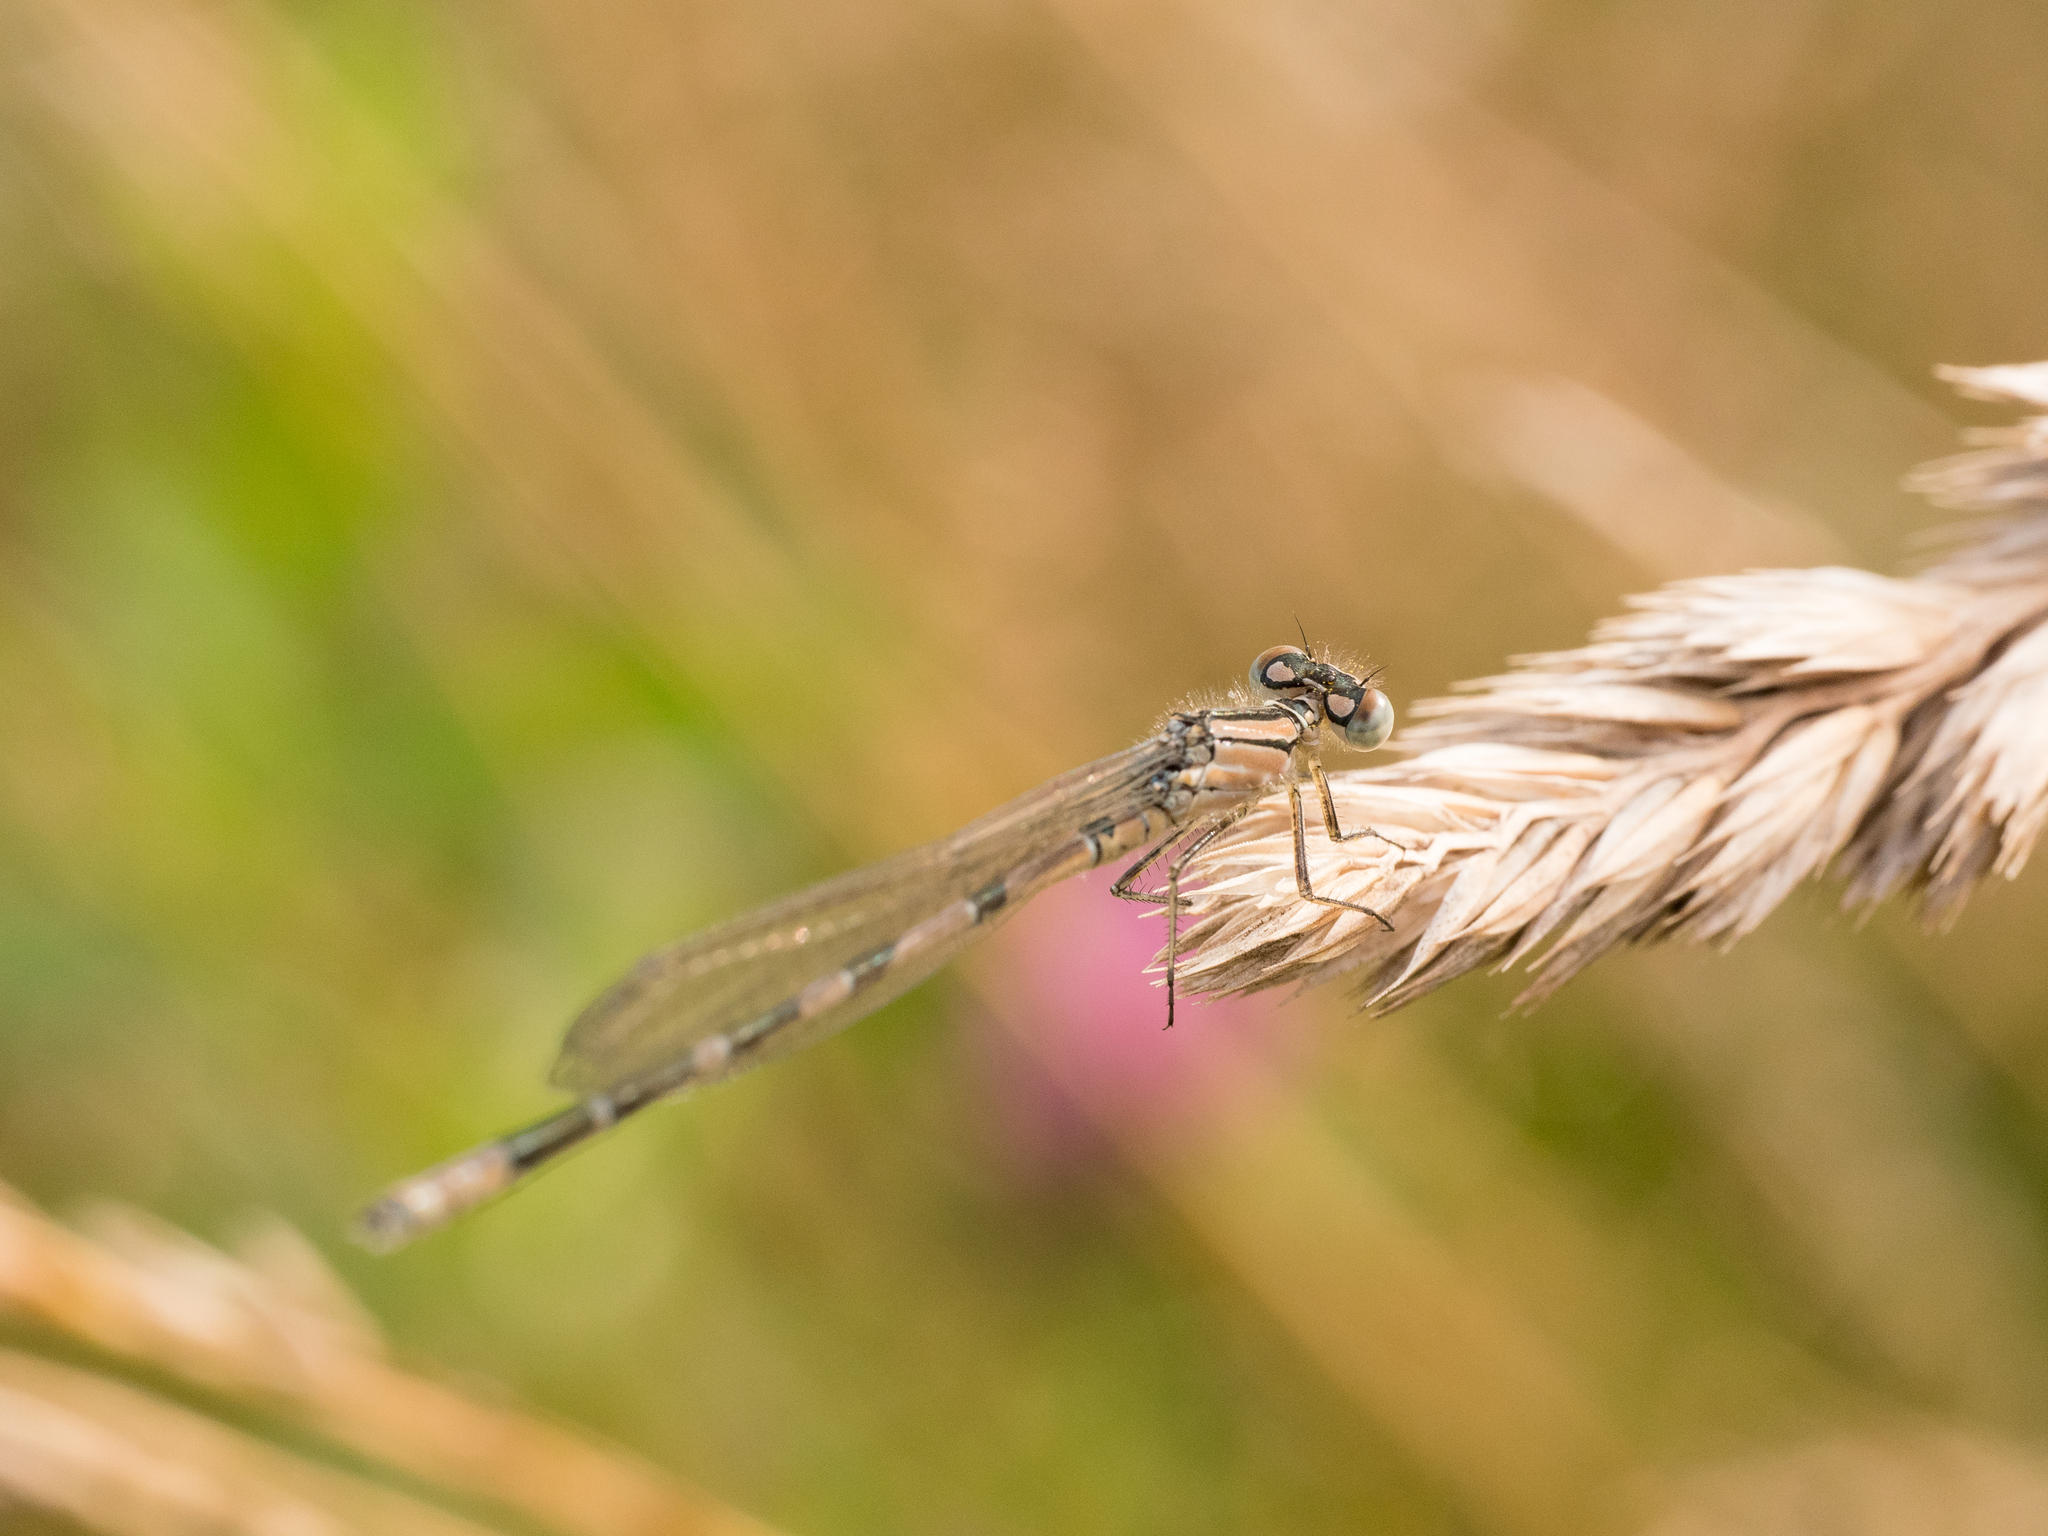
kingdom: Animalia
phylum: Arthropoda
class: Insecta
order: Odonata
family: Coenagrionidae
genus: Enallagma
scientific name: Enallagma cyathigerum
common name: Common blue damselfly
